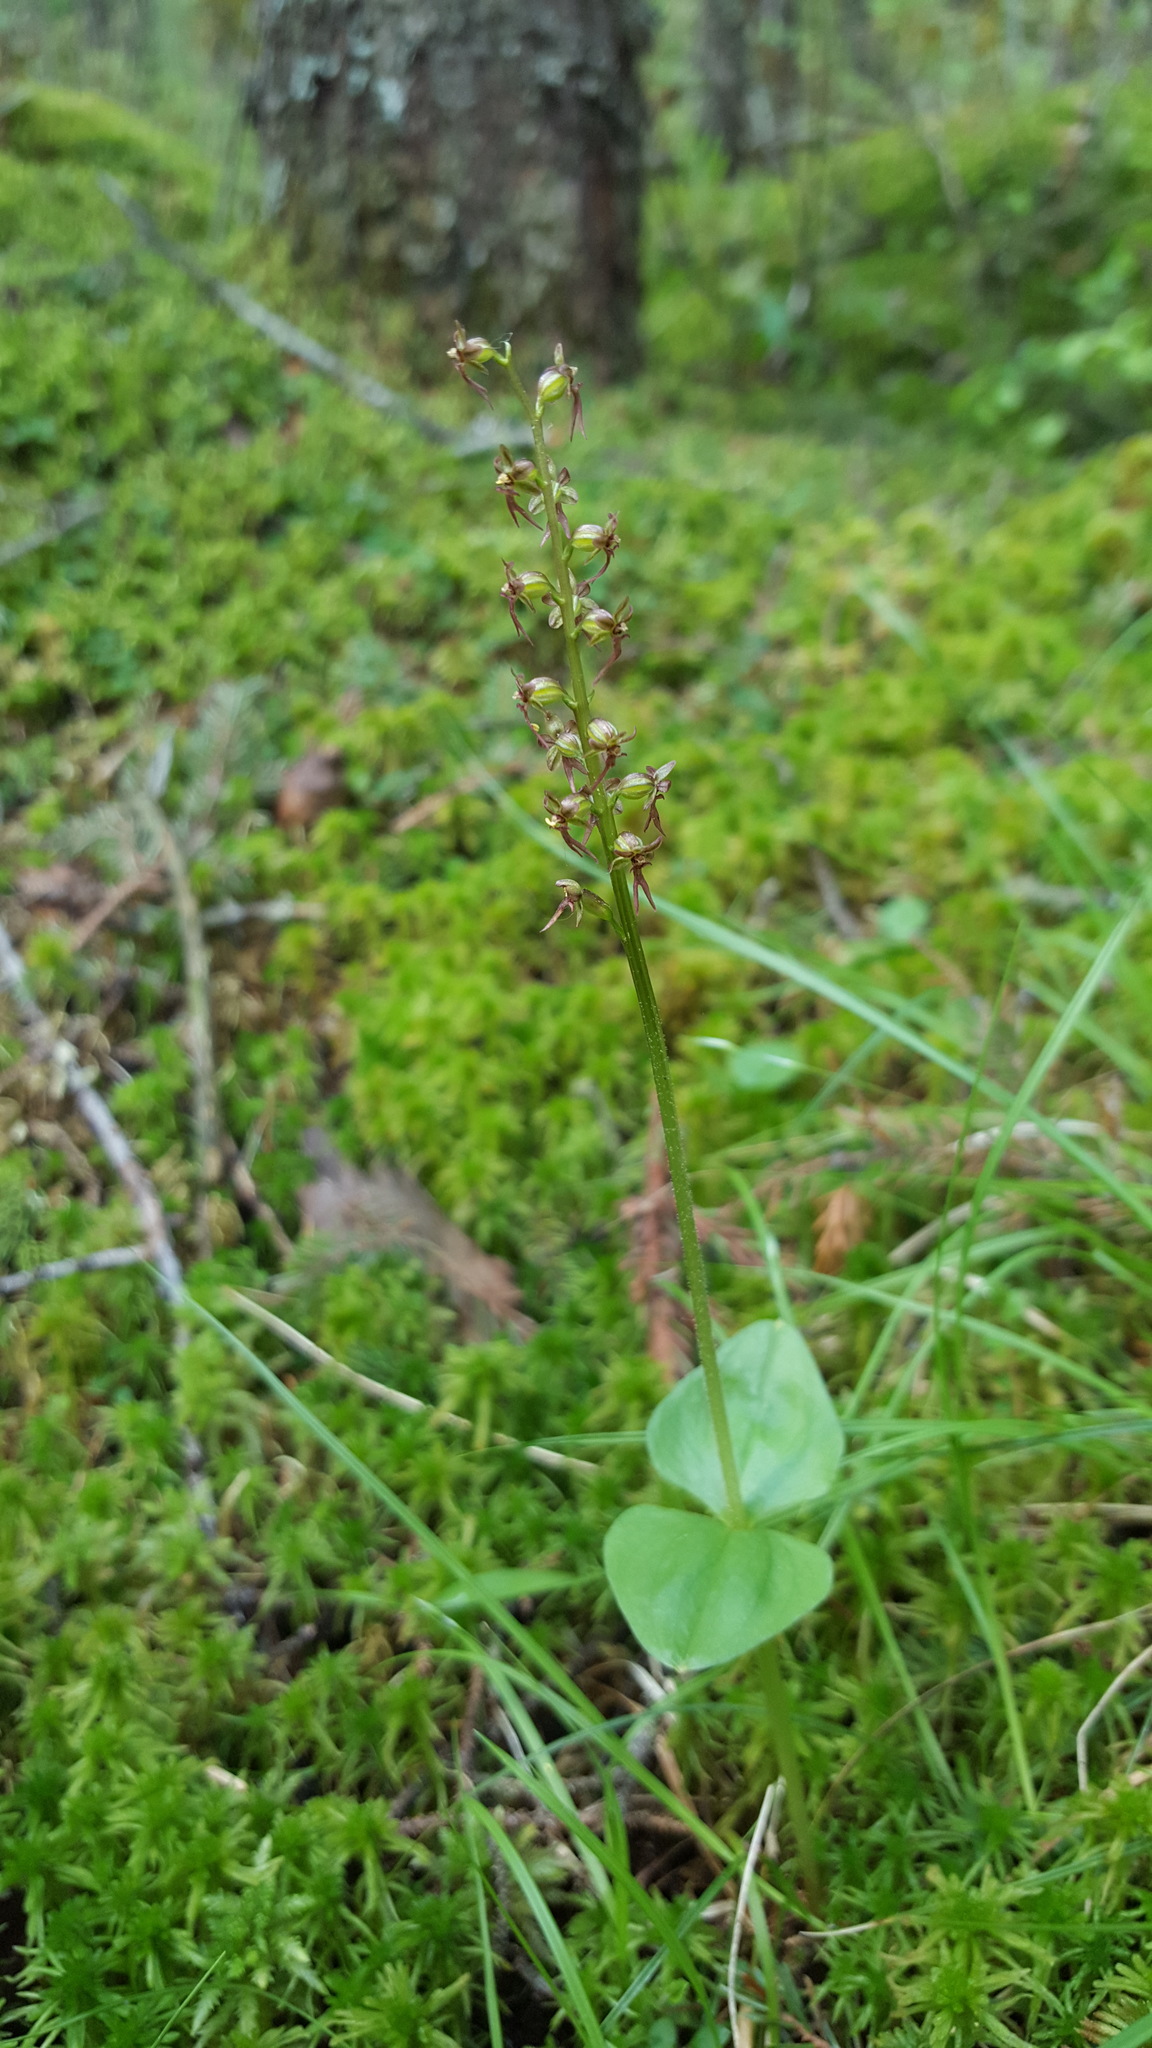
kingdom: Plantae
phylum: Tracheophyta
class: Liliopsida
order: Asparagales
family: Orchidaceae
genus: Neottia
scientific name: Neottia cordata
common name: Lesser twayblade
